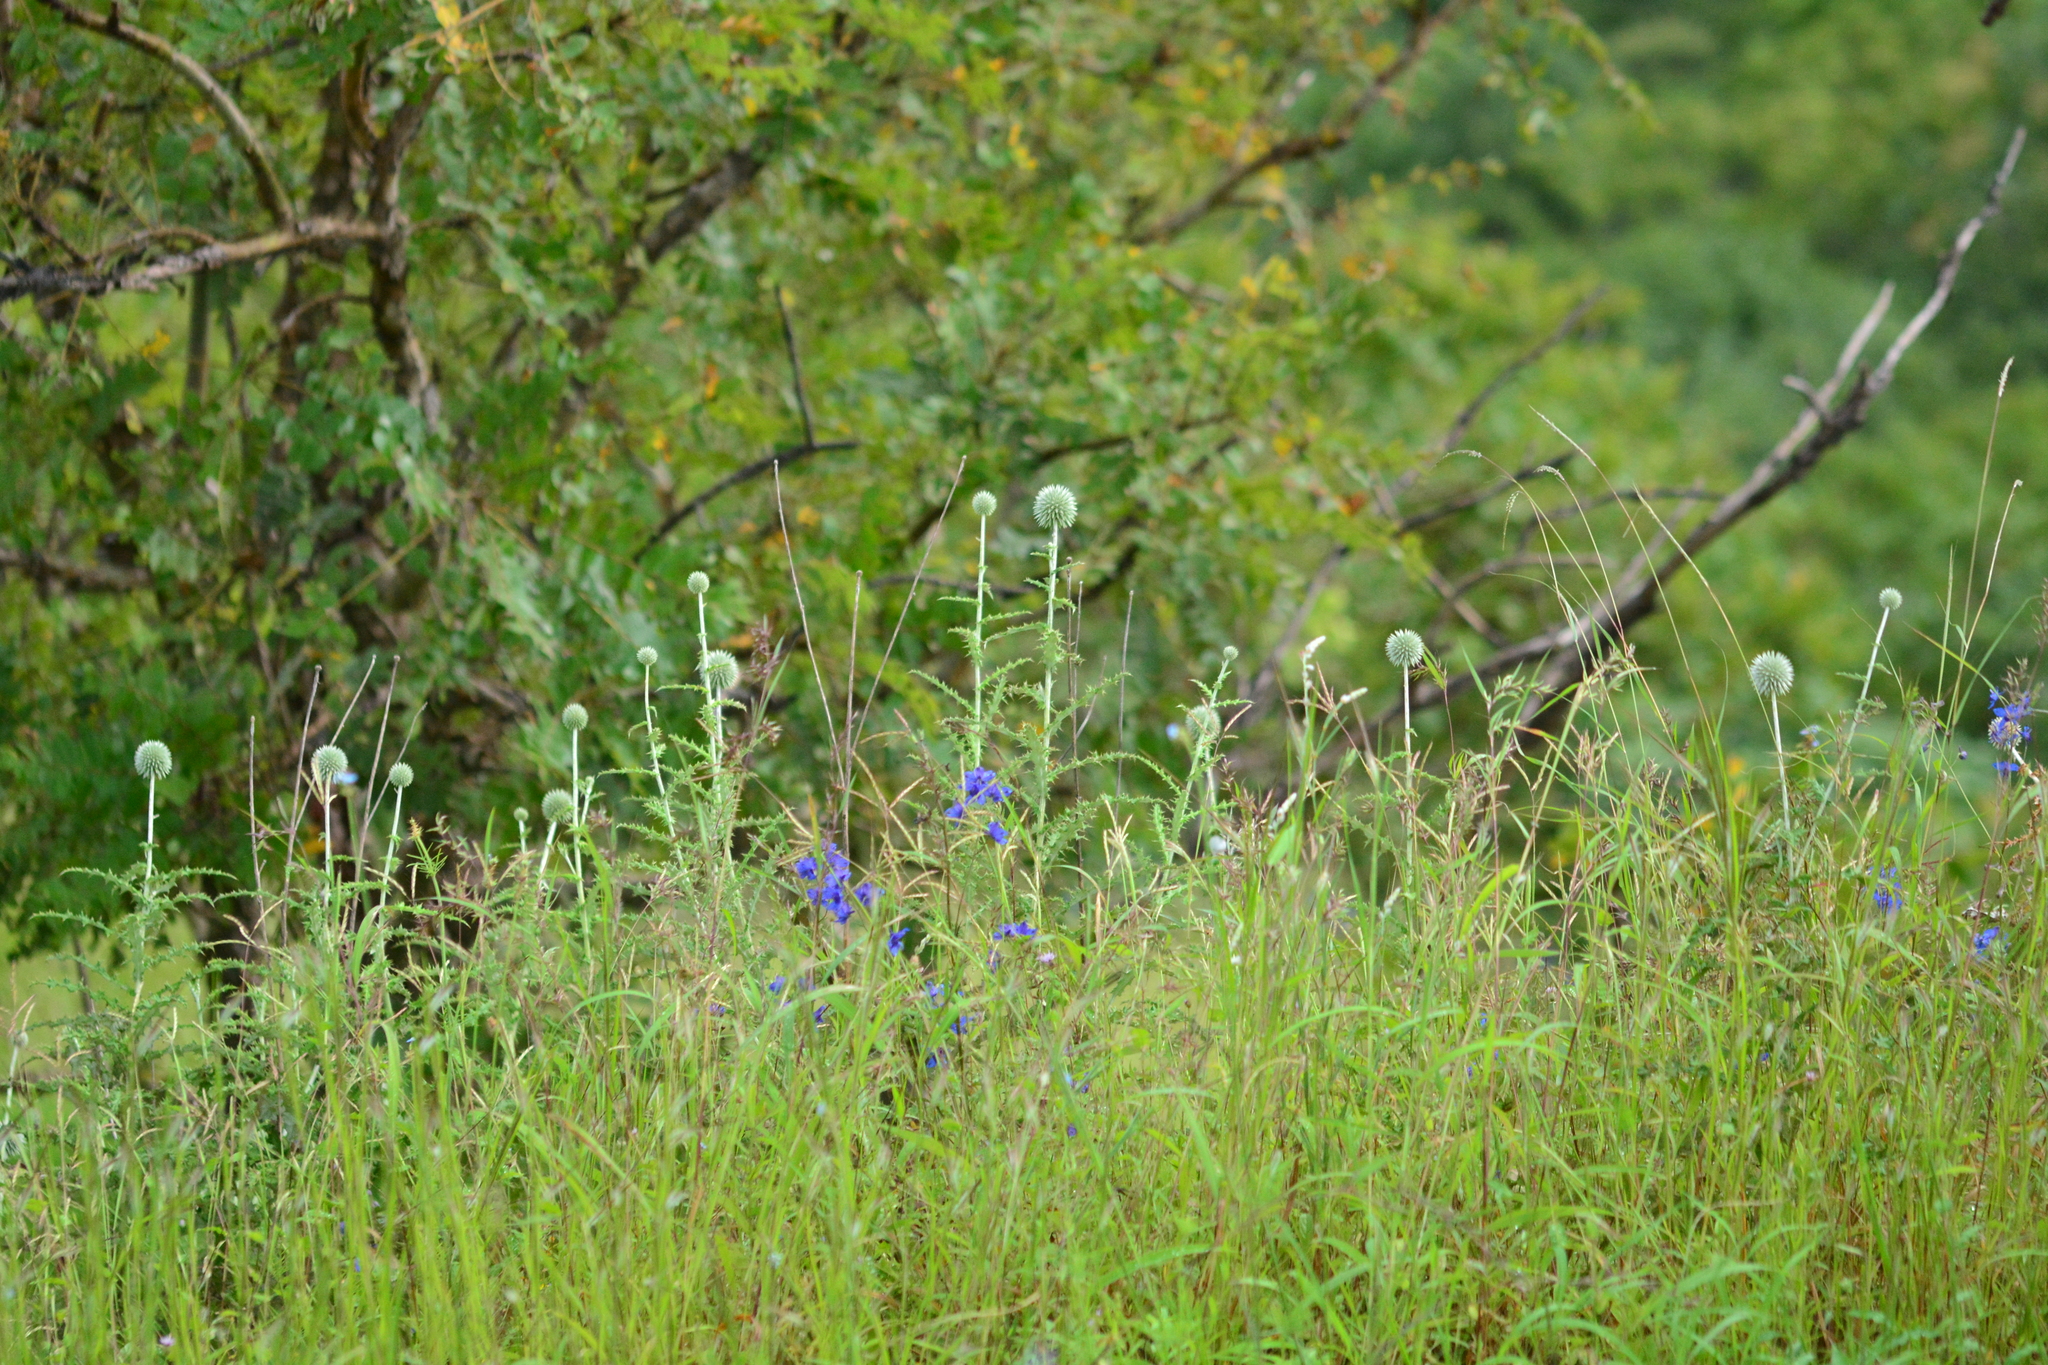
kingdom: Plantae
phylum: Tracheophyta
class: Magnoliopsida
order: Asterales
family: Asteraceae
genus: Echinops
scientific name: Echinops sahyadricus
